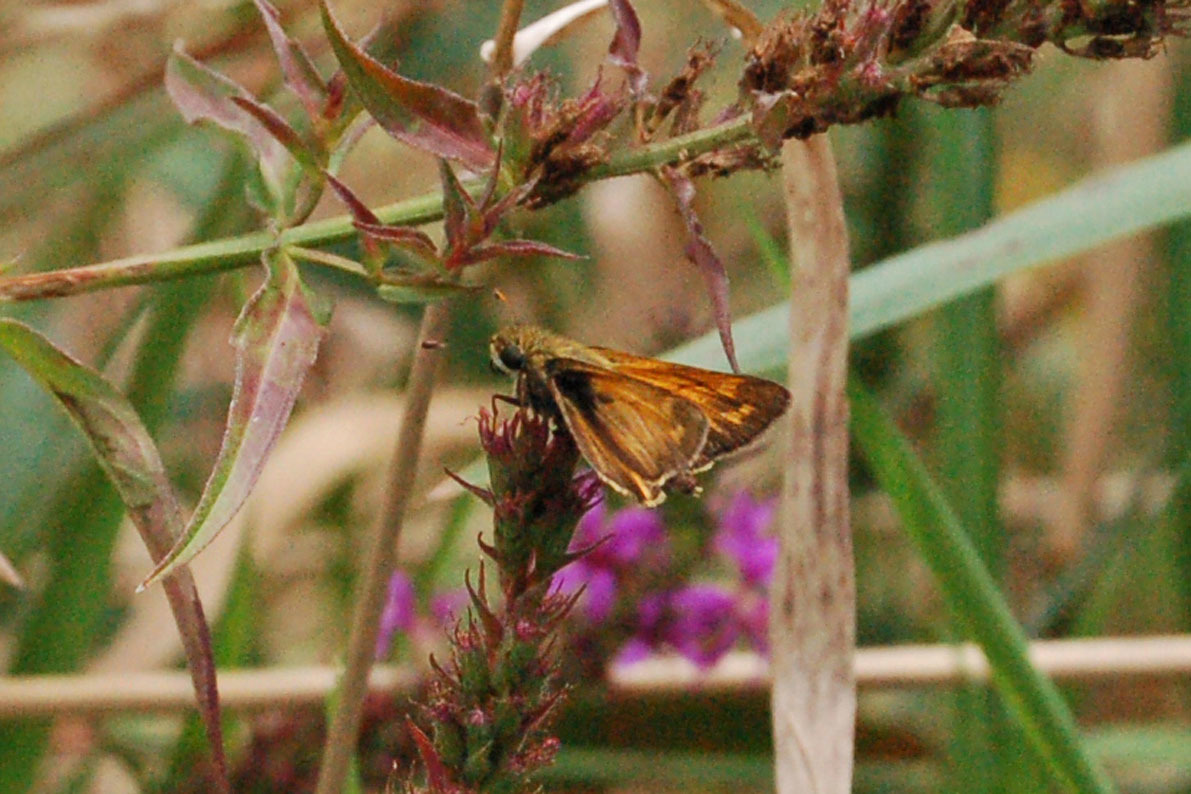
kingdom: Animalia
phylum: Arthropoda
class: Insecta
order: Lepidoptera
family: Hesperiidae
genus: Atalopedes
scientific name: Atalopedes
